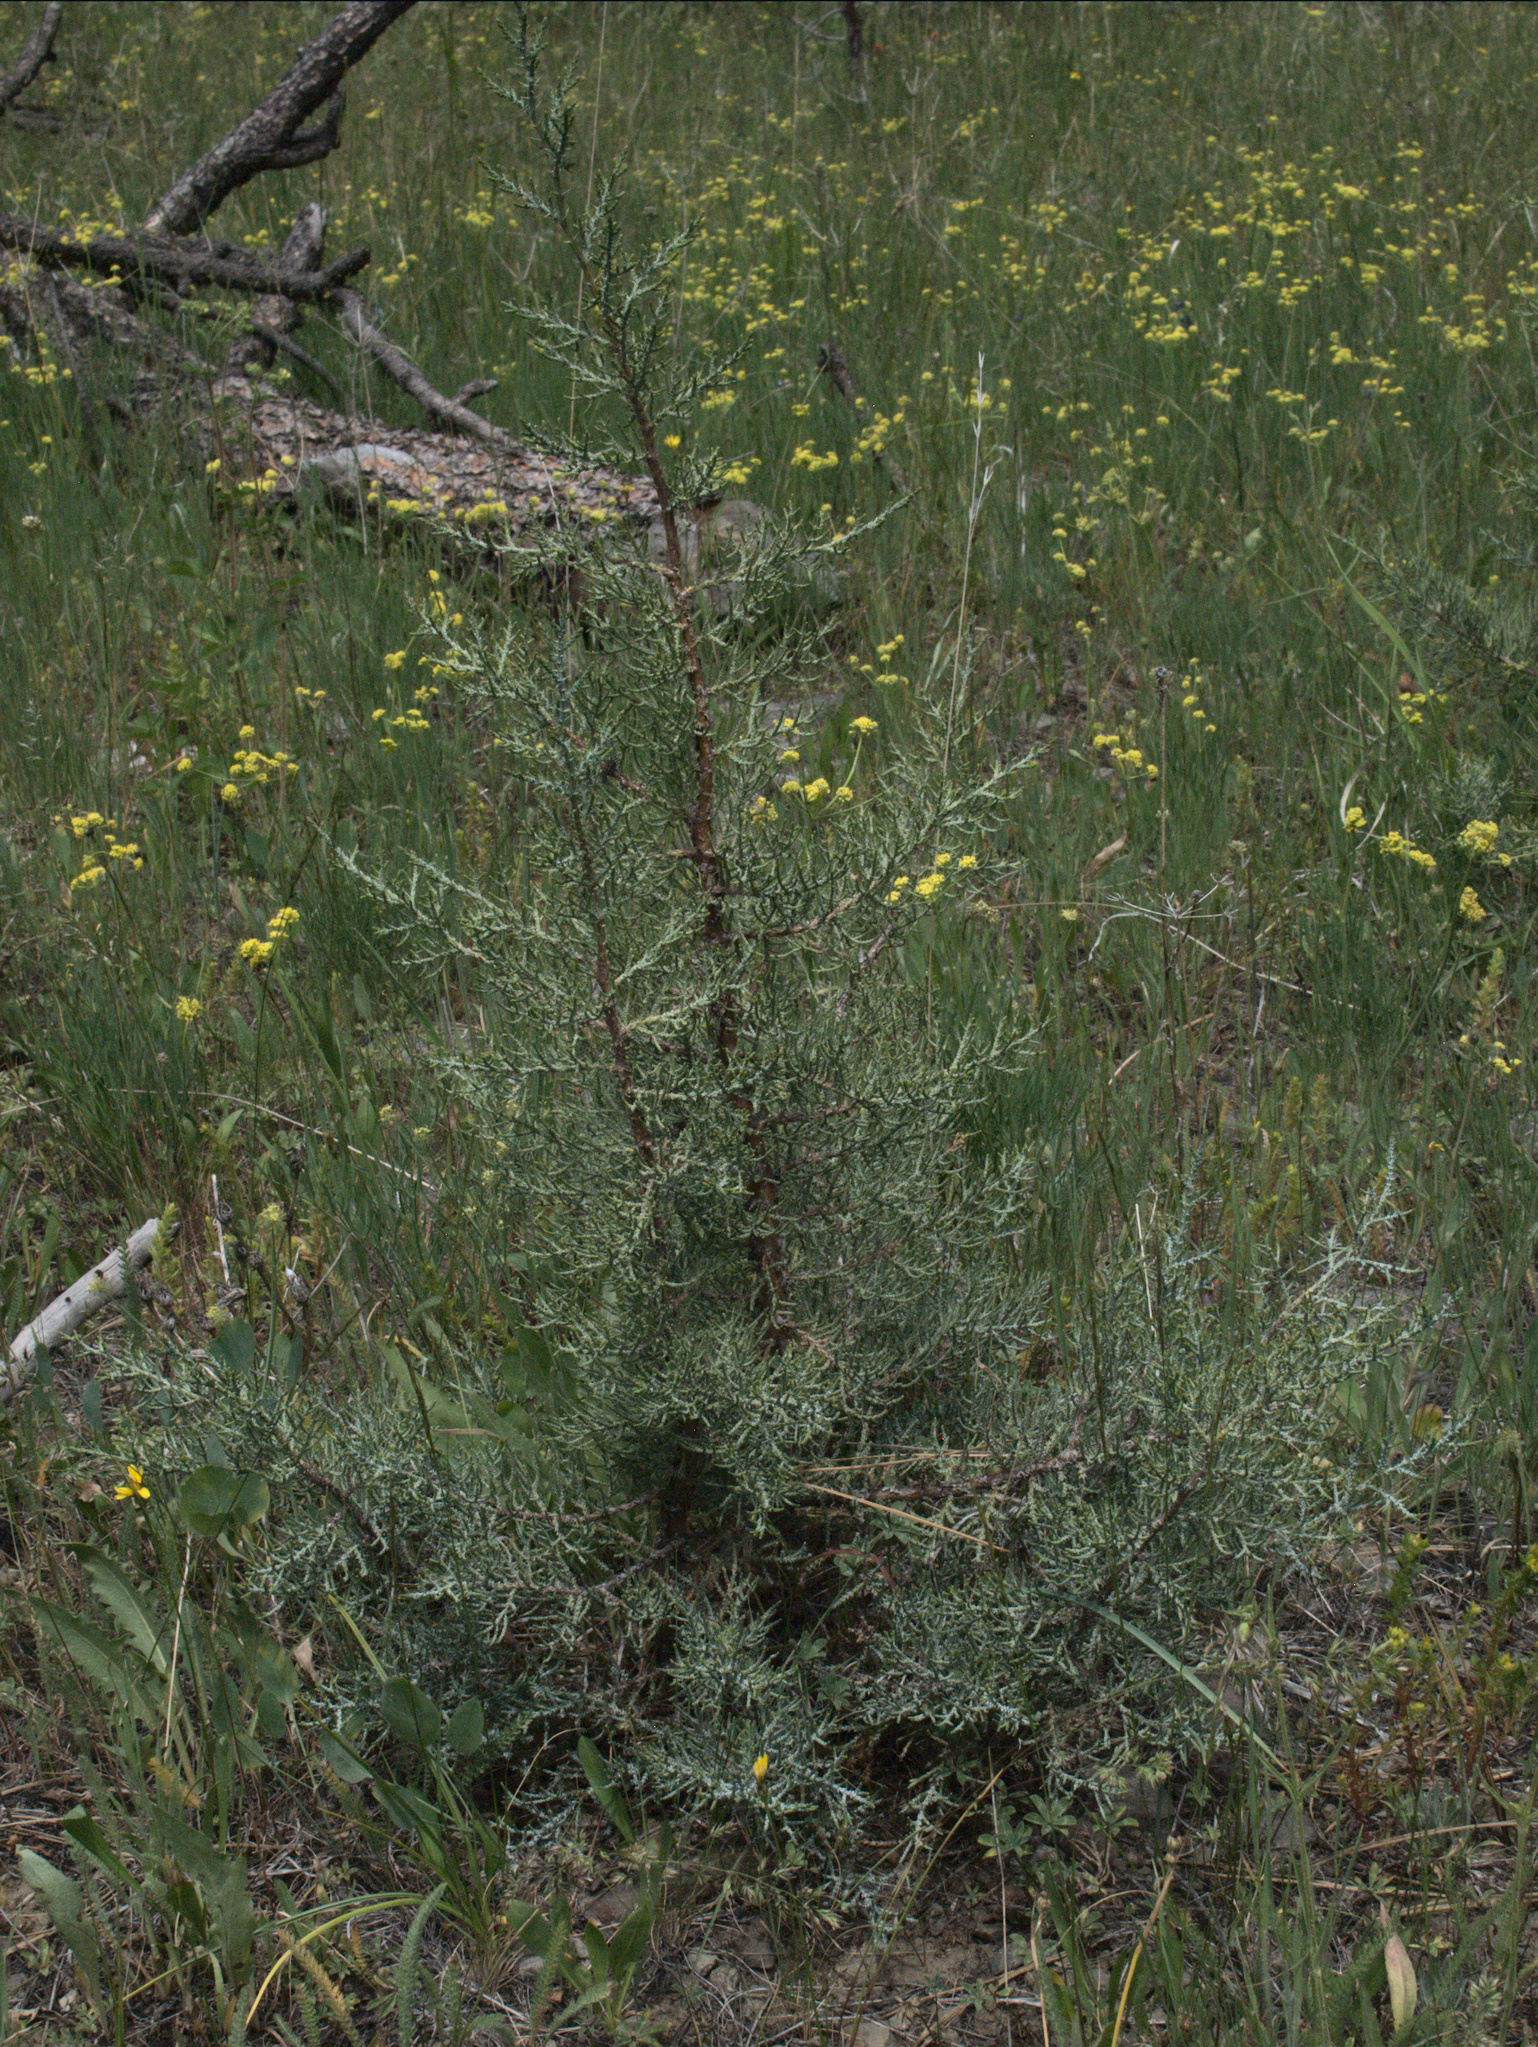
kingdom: Plantae
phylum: Tracheophyta
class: Pinopsida
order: Pinales
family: Cupressaceae
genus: Juniperus
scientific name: Juniperus occidentalis
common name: Western juniper
